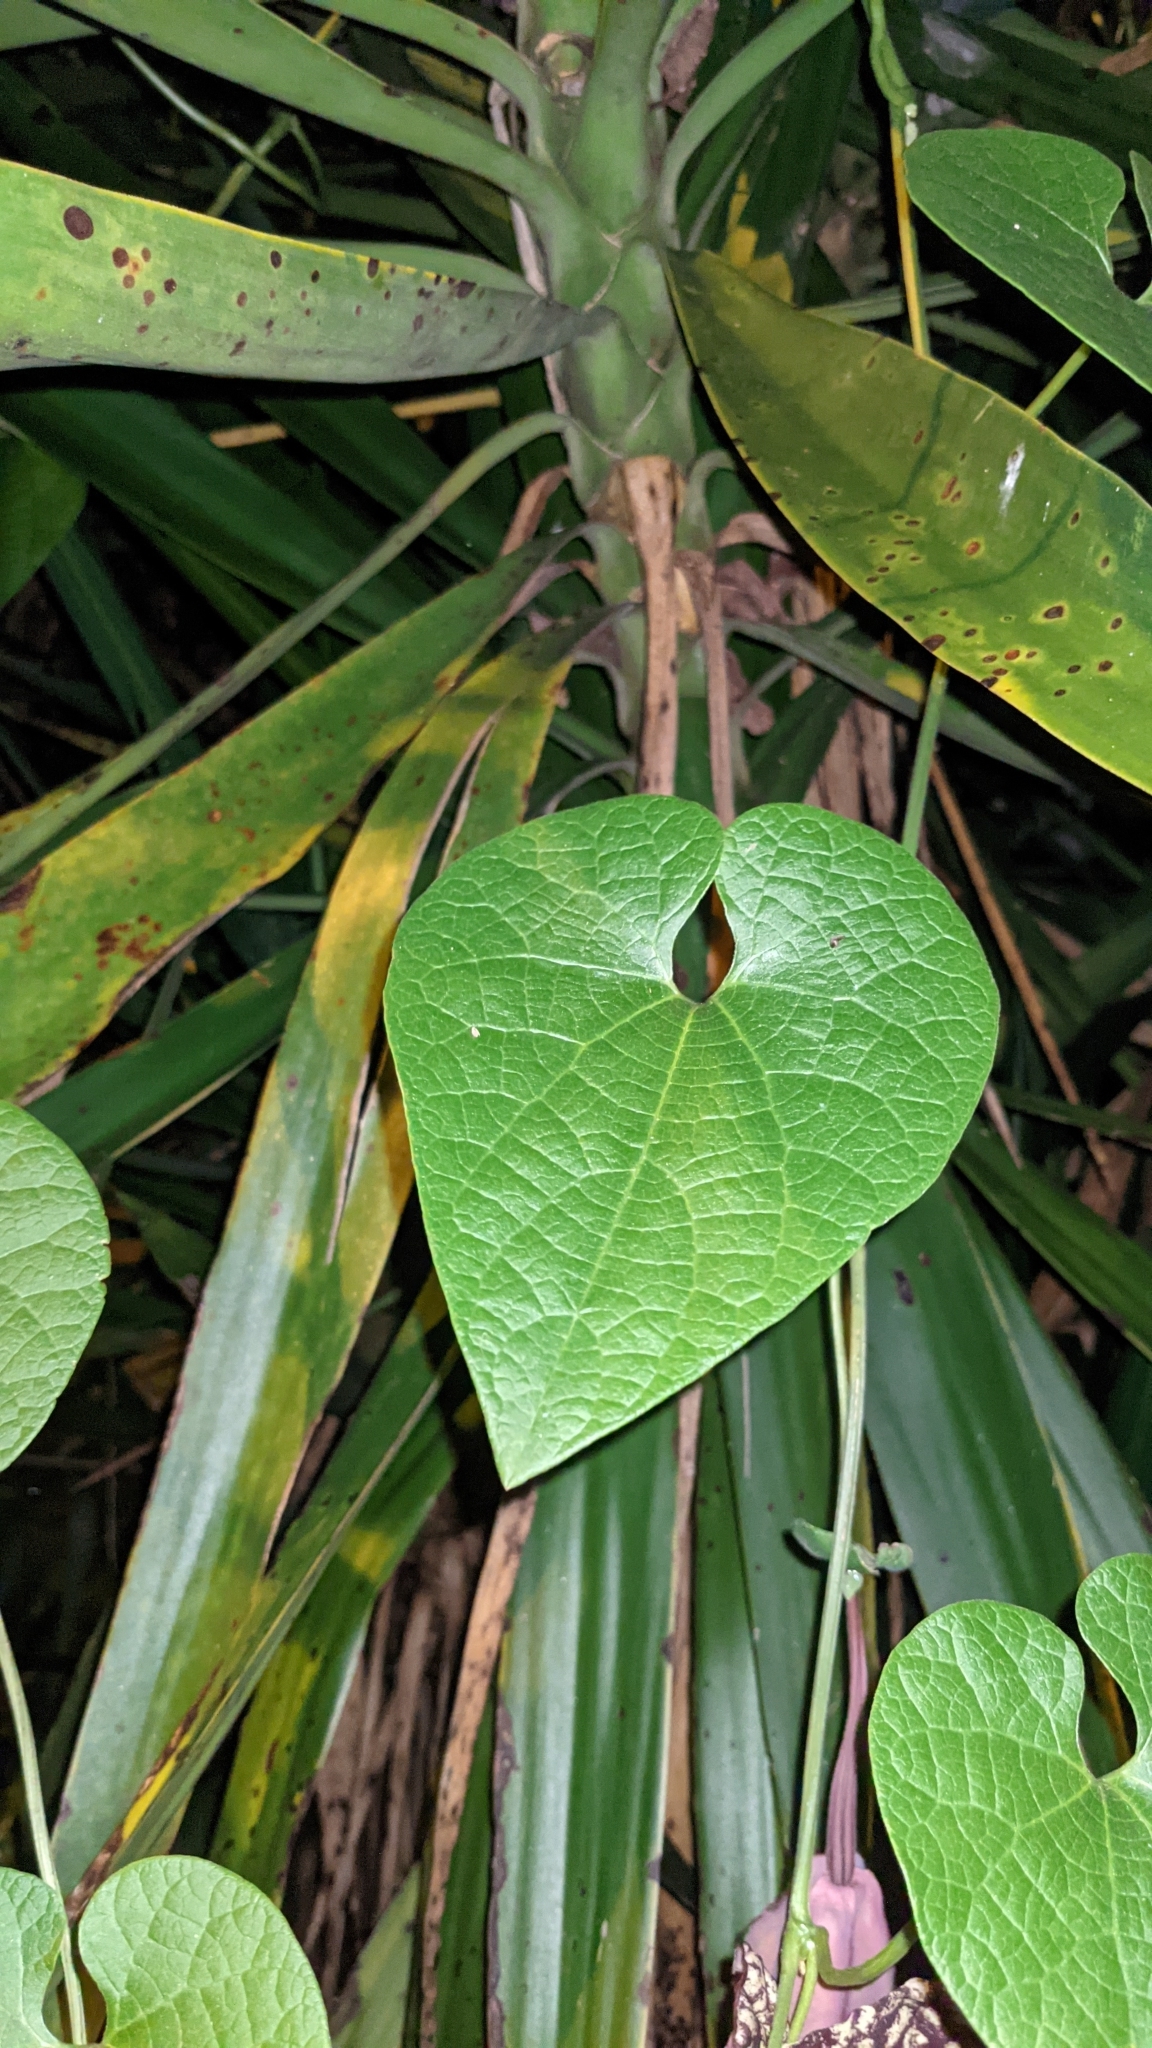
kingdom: Plantae
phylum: Tracheophyta
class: Magnoliopsida
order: Piperales
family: Aristolochiaceae
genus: Aristolochia
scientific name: Aristolochia grandiflora
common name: Pelicanflower
